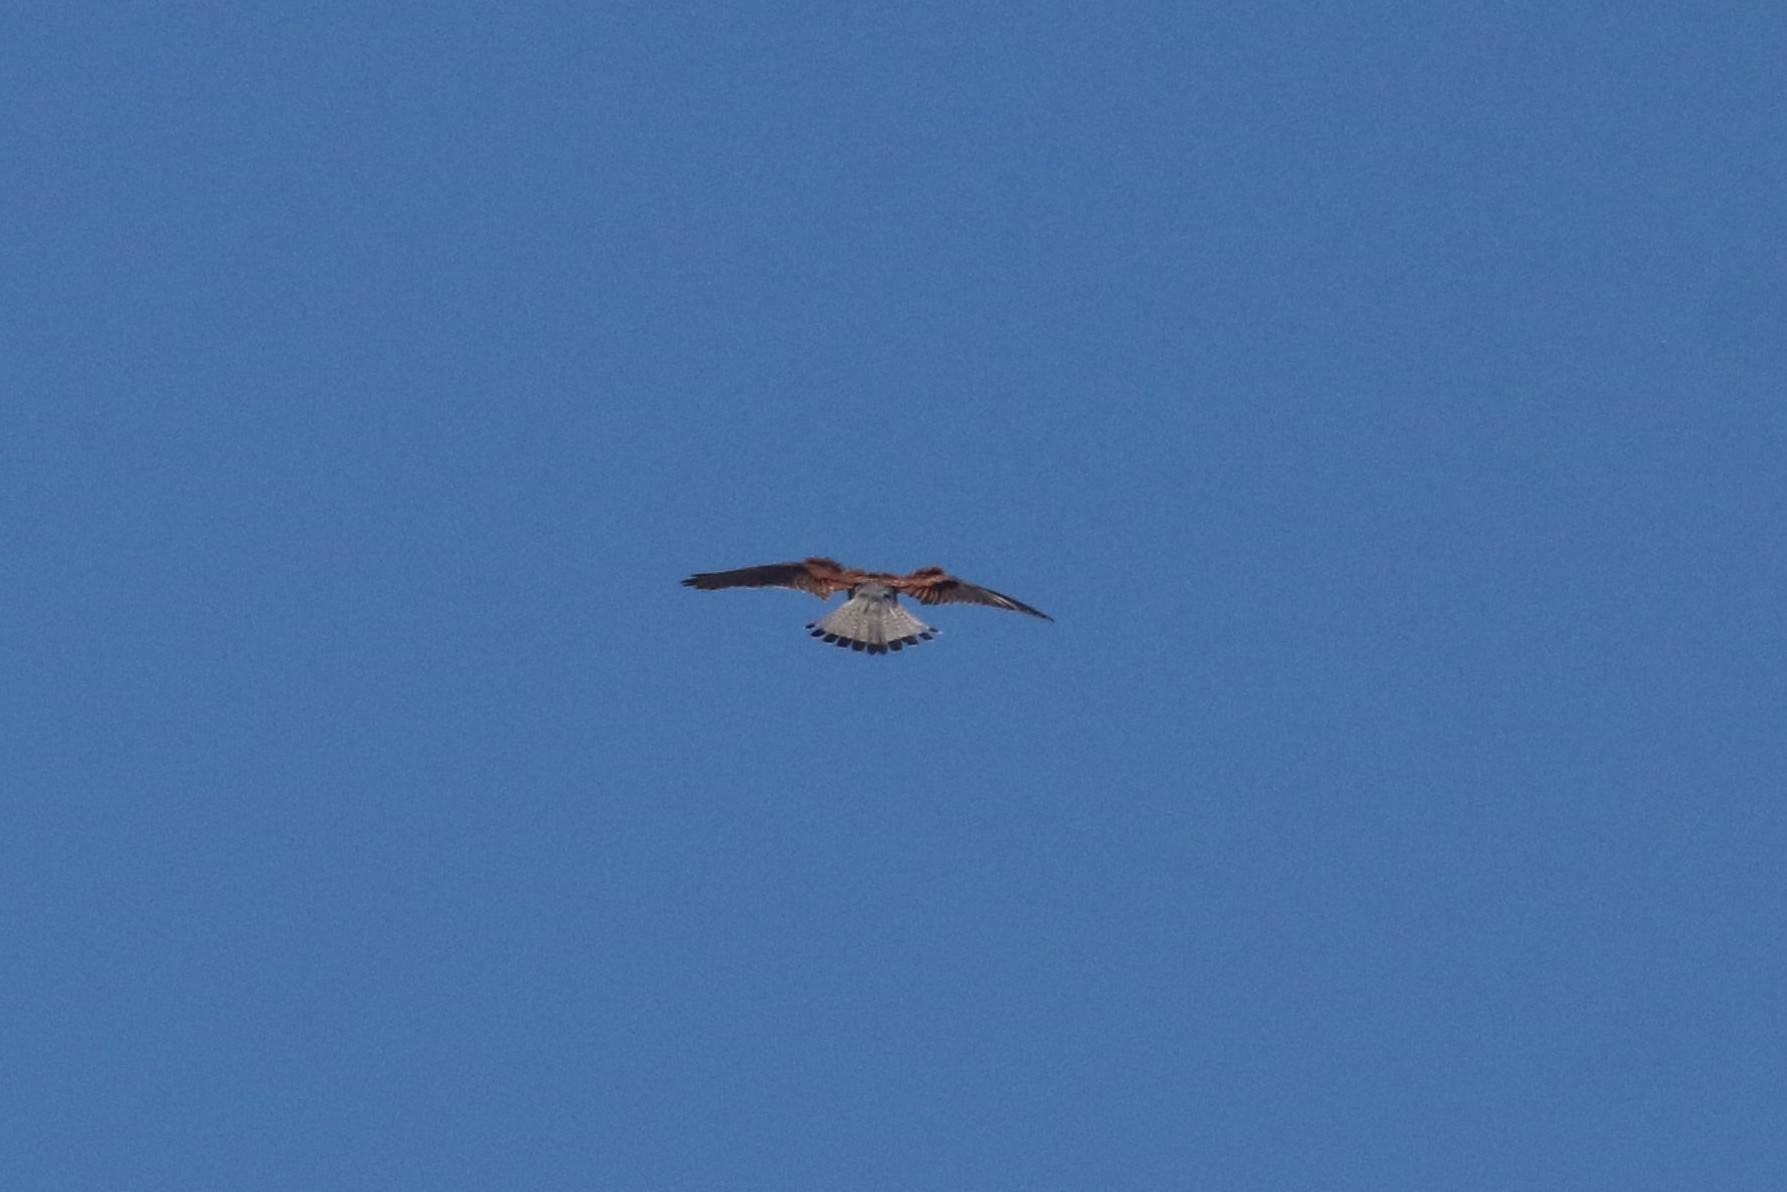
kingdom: Animalia
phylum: Chordata
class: Aves
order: Falconiformes
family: Falconidae
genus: Falco
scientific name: Falco tinnunculus
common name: Common kestrel
